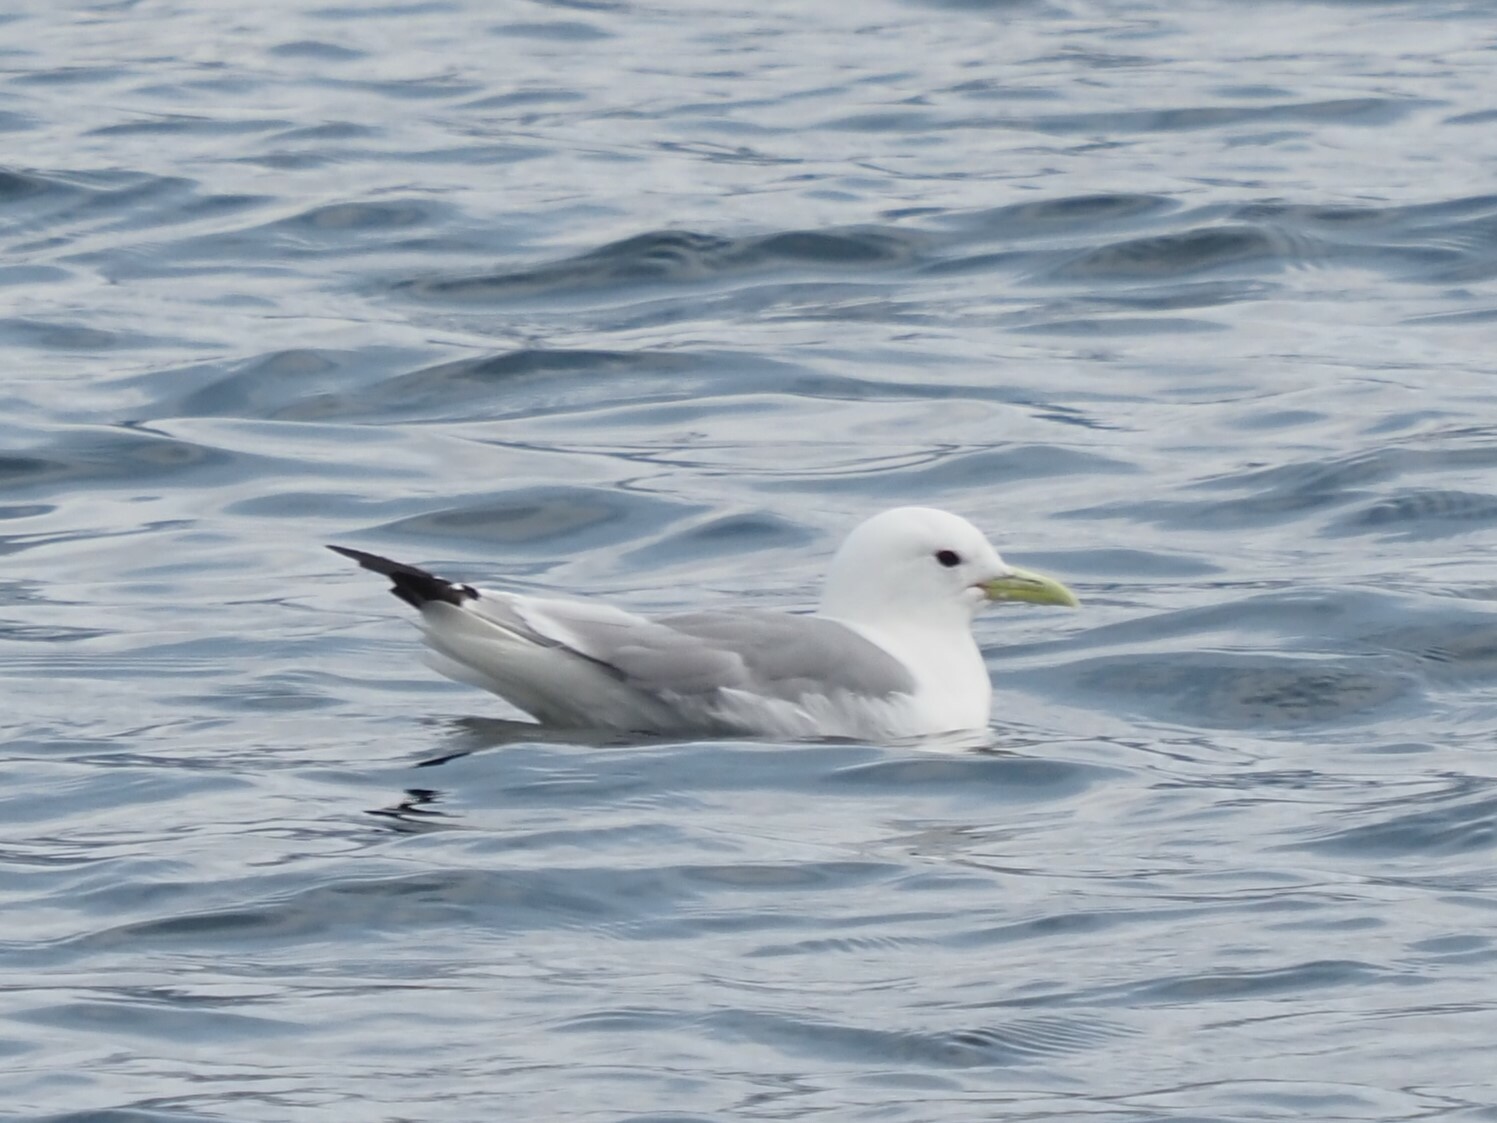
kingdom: Animalia
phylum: Chordata
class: Aves
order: Charadriiformes
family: Laridae
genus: Rissa
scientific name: Rissa tridactyla
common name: Black-legged kittiwake
